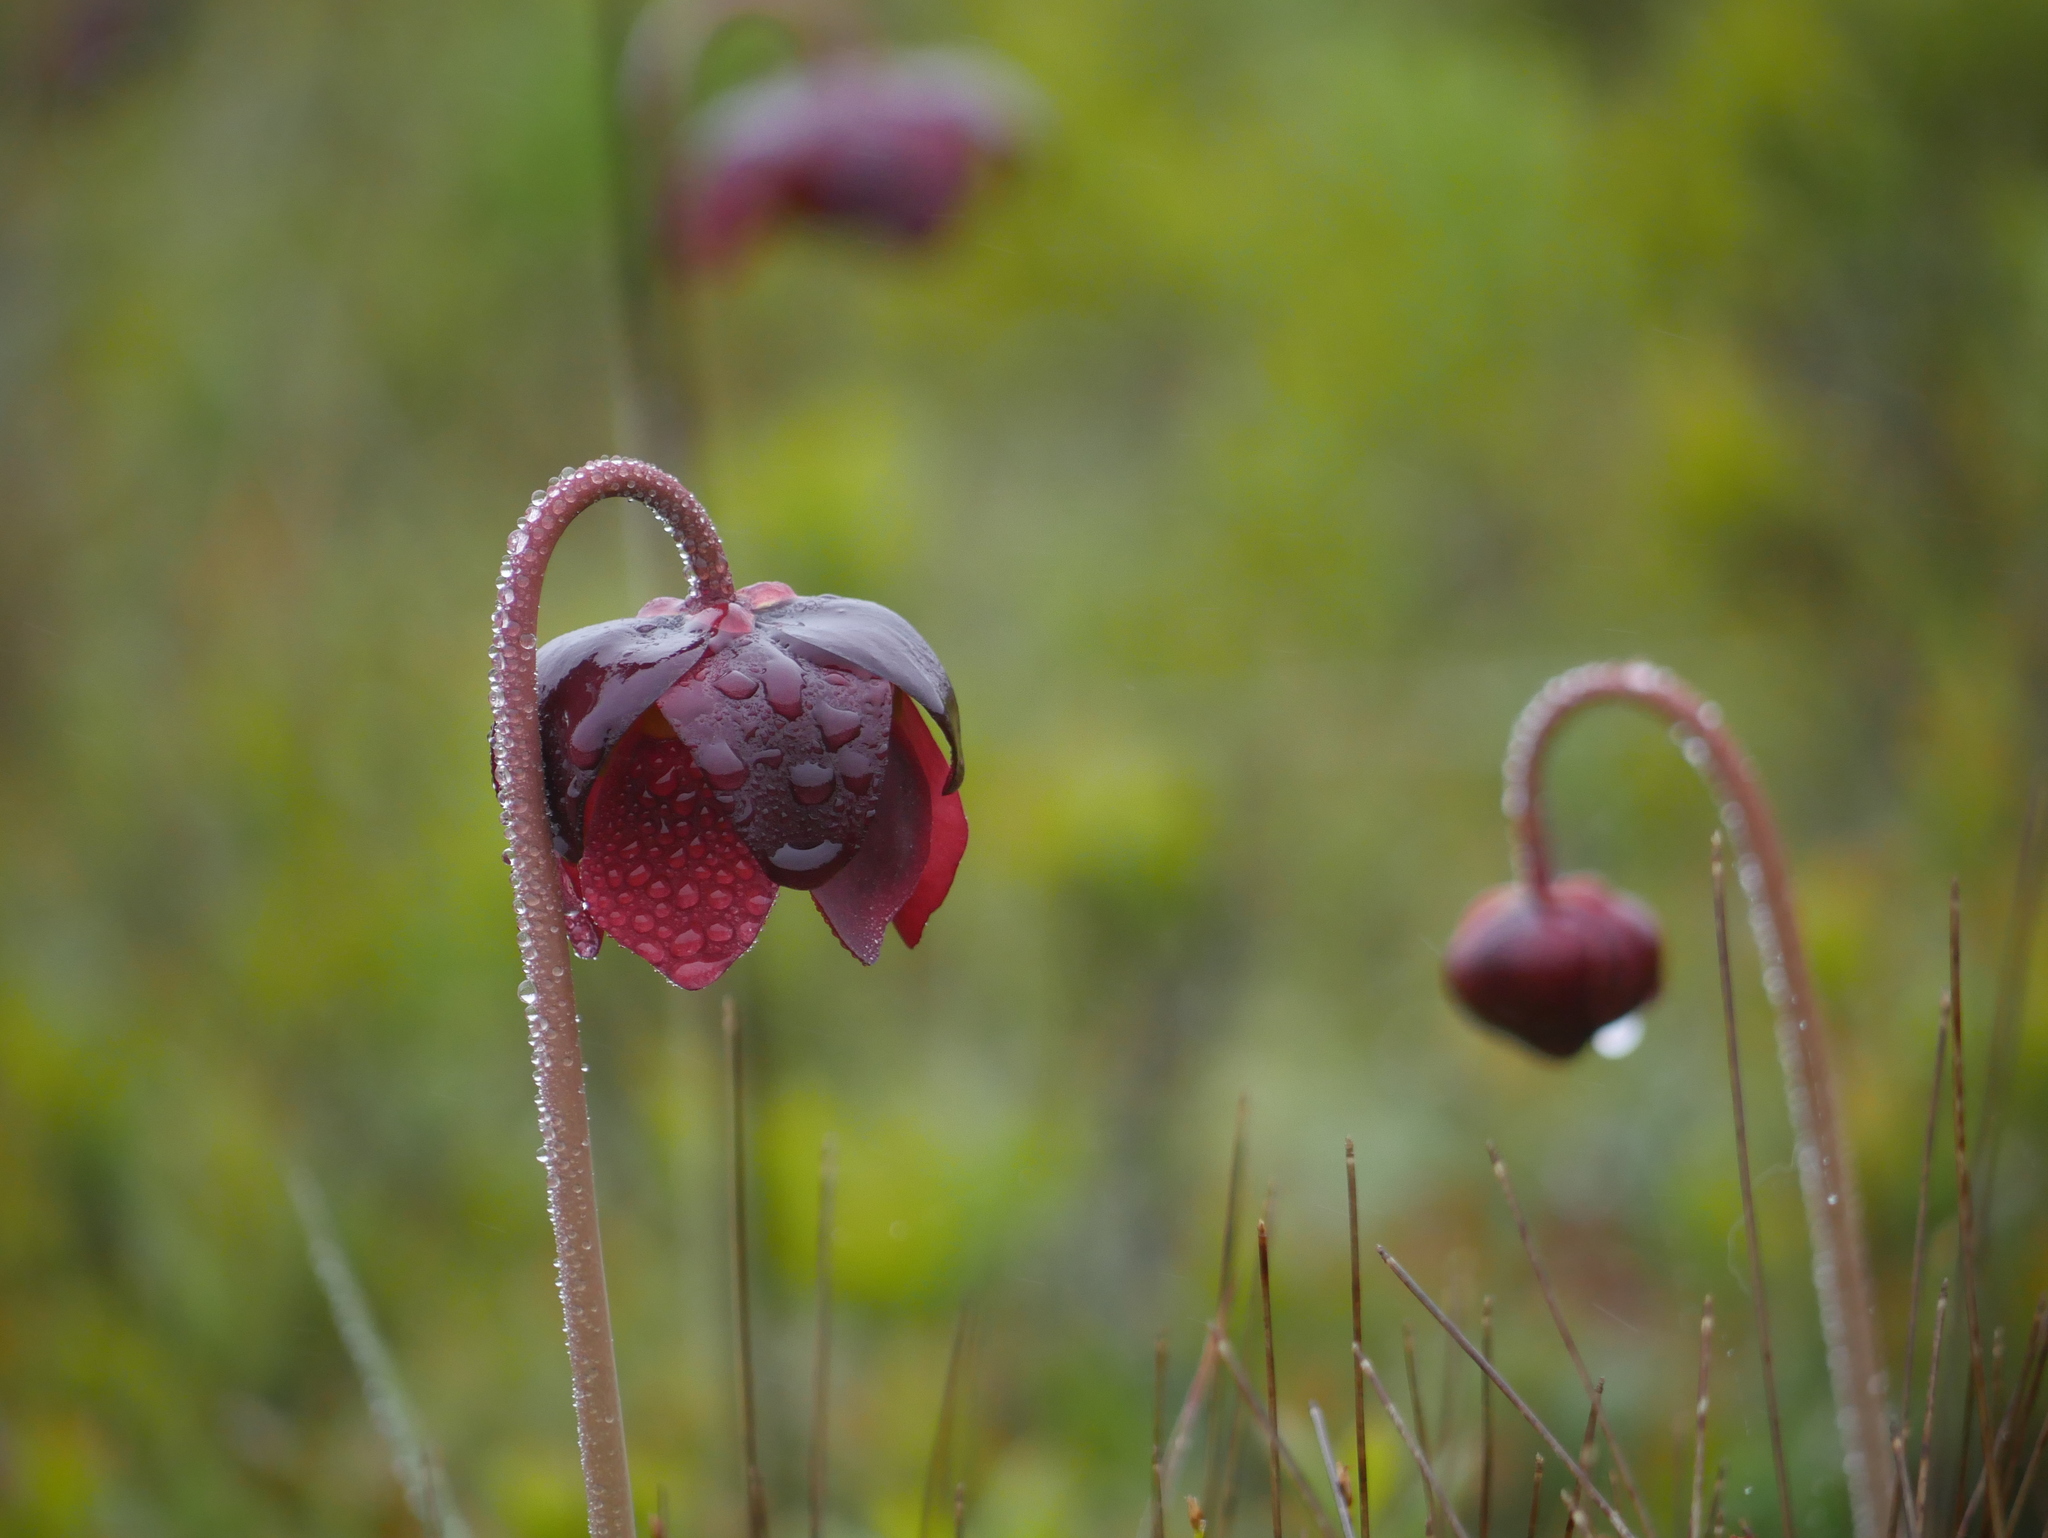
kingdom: Plantae
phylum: Tracheophyta
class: Magnoliopsida
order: Ericales
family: Sarraceniaceae
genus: Sarracenia
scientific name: Sarracenia purpurea
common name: Pitcherplant
